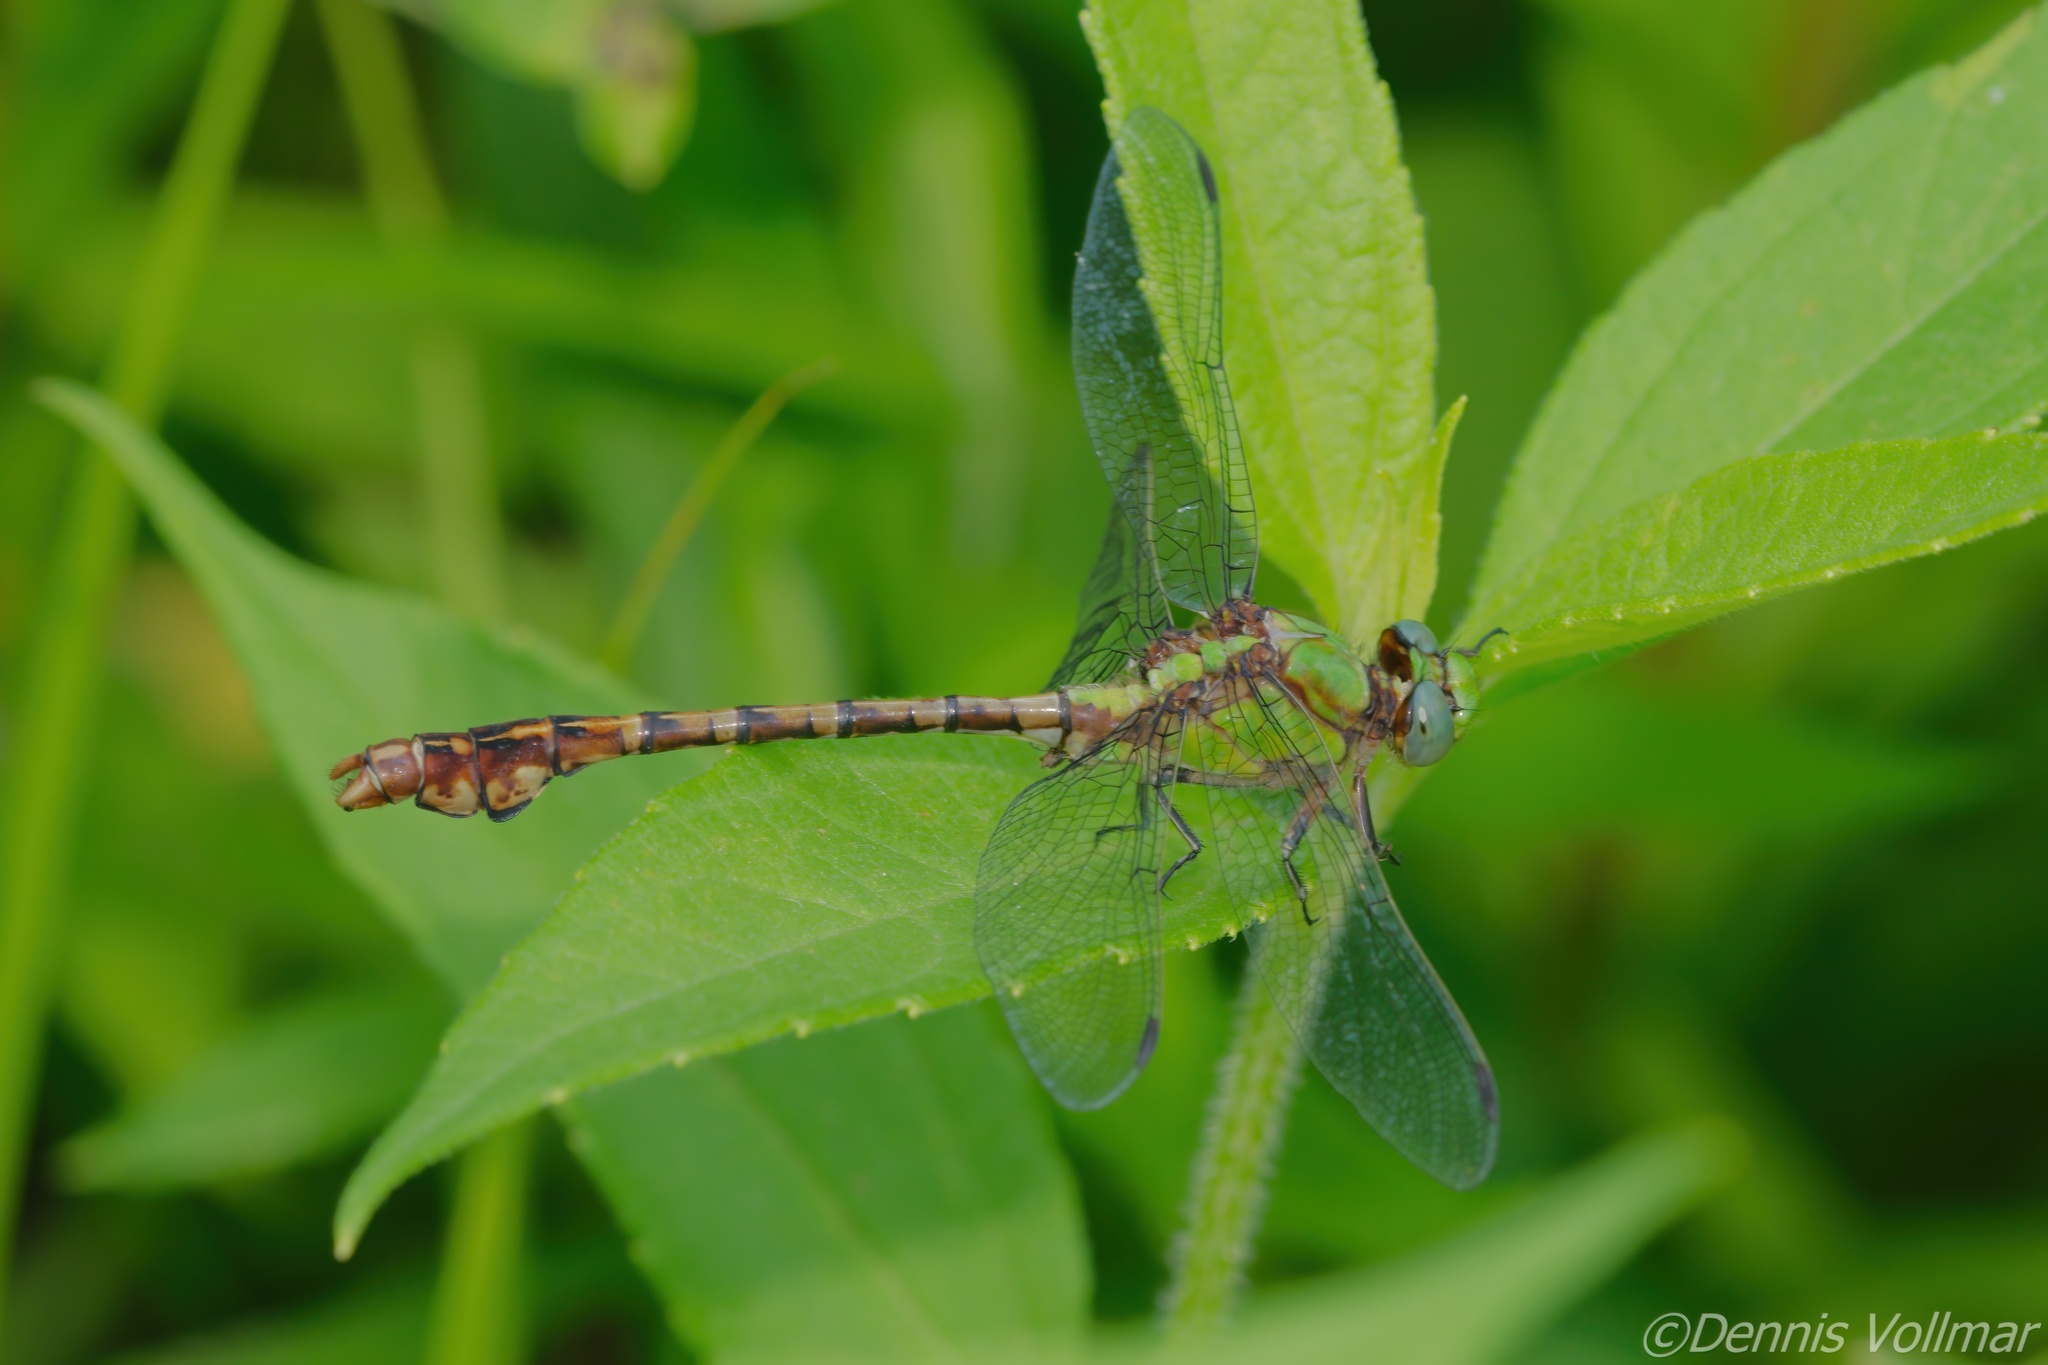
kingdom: Animalia
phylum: Arthropoda
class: Insecta
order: Odonata
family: Gomphidae
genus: Ophiogomphus
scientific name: Ophiogomphus rupinsulensis
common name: Rusty snaketail
